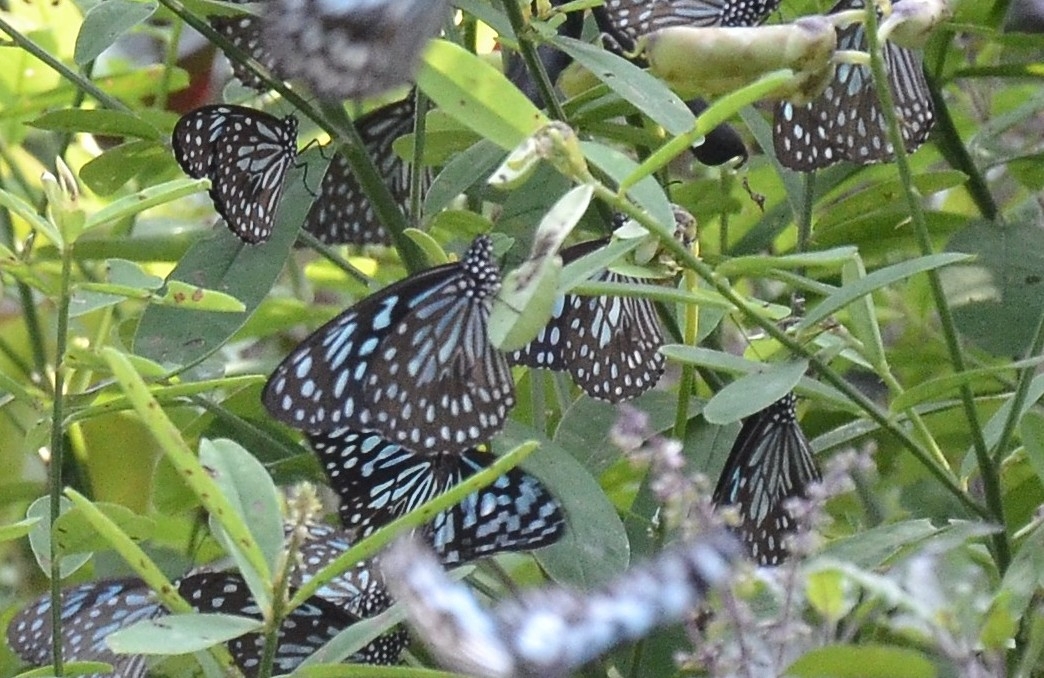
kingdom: Animalia
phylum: Arthropoda
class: Insecta
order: Lepidoptera
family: Nymphalidae
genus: Tirumala
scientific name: Tirumala septentrionis
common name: Dark blue tiger butterfly
